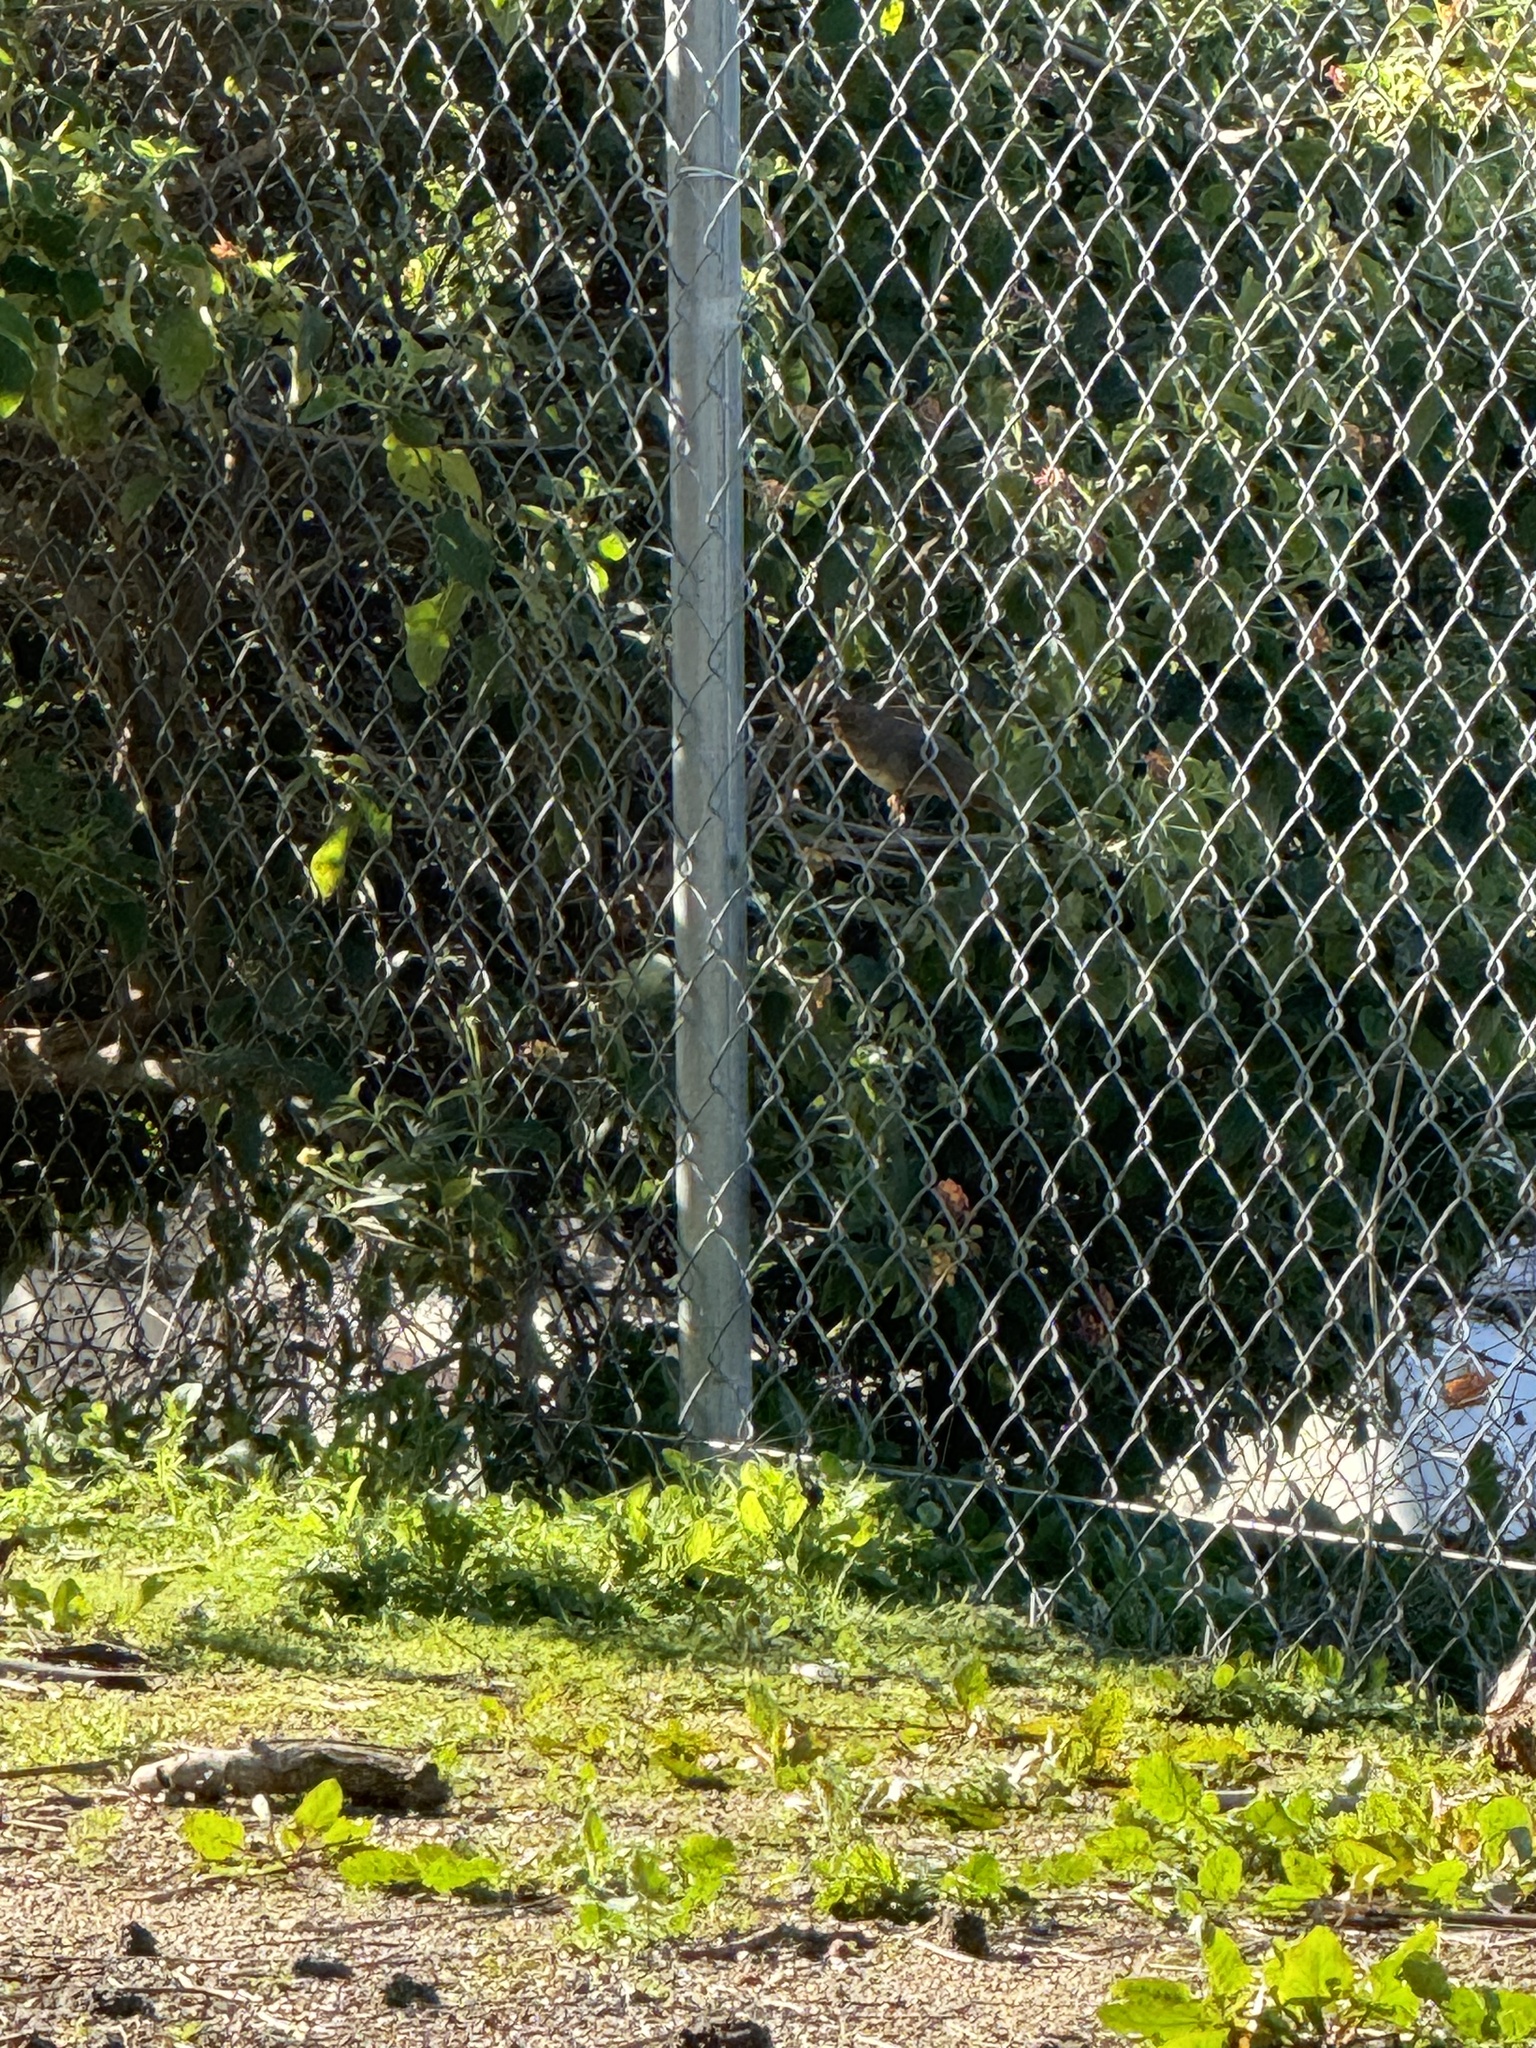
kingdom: Animalia
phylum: Chordata
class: Aves
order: Passeriformes
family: Passerellidae
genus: Melozone
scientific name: Melozone crissalis
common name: California towhee
